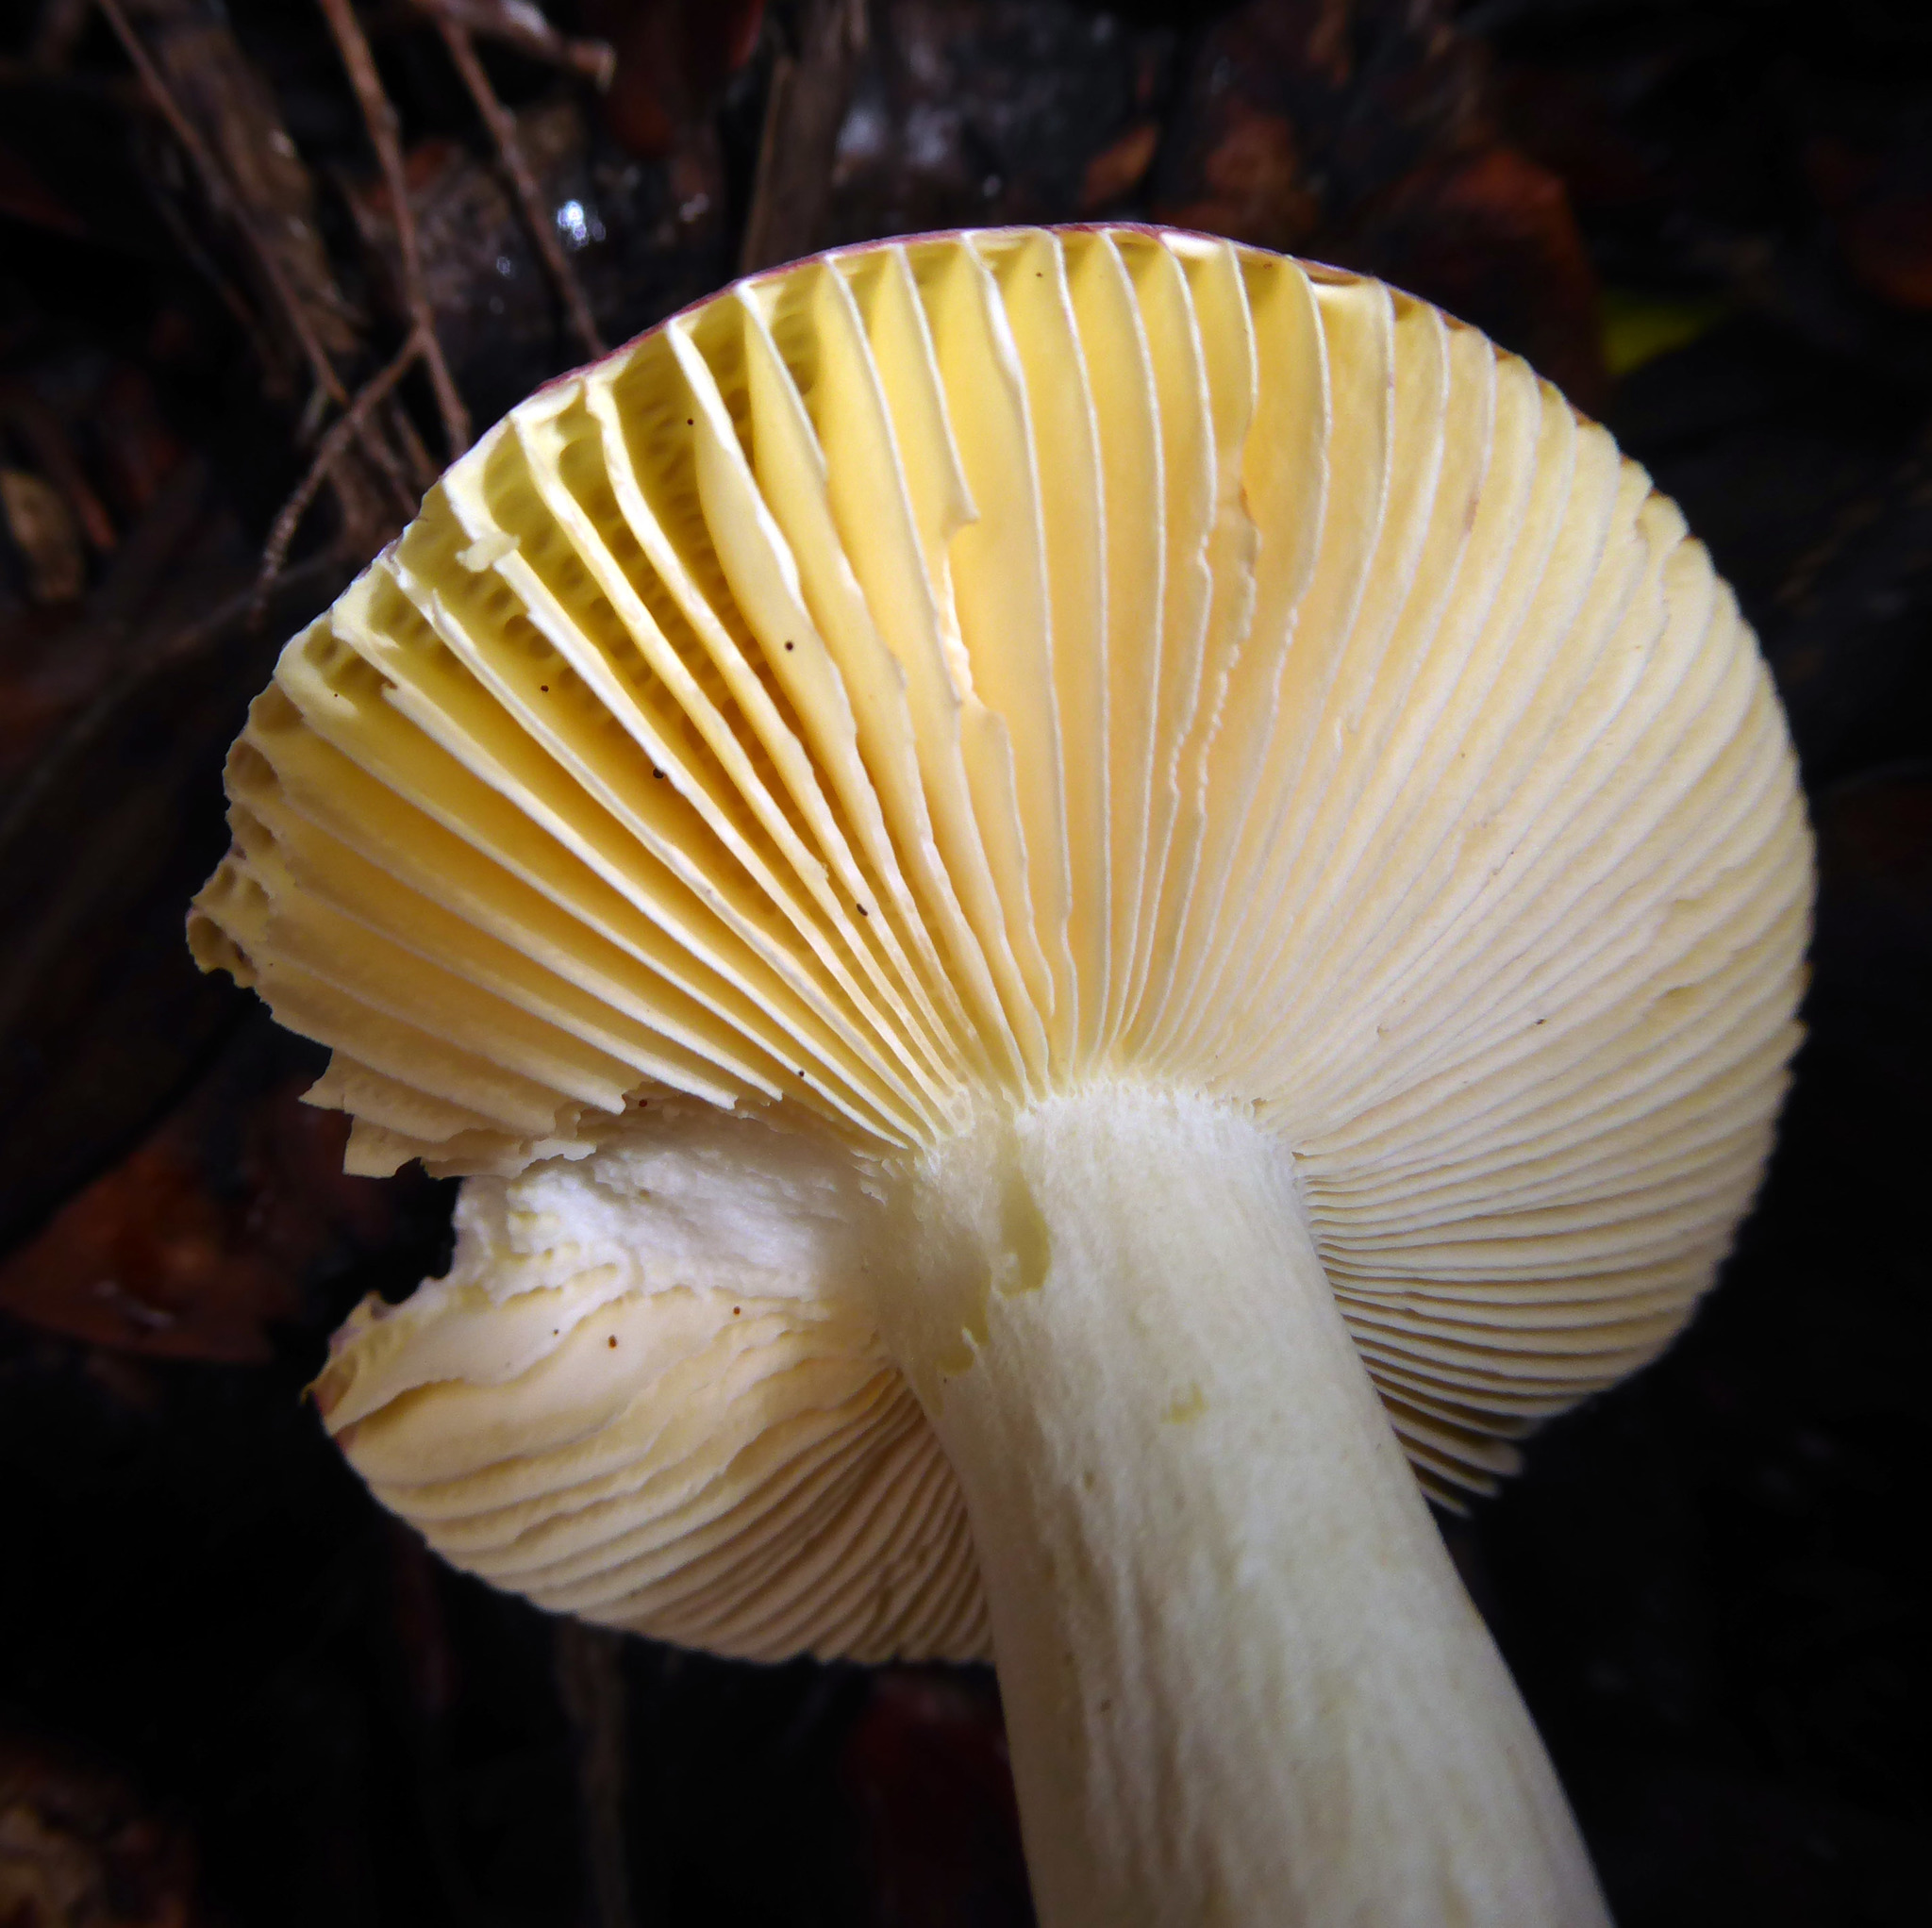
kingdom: Fungi
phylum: Basidiomycota
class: Agaricomycetes
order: Russulales
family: Russulaceae
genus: Russula
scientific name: Russula novae-zelandiae
